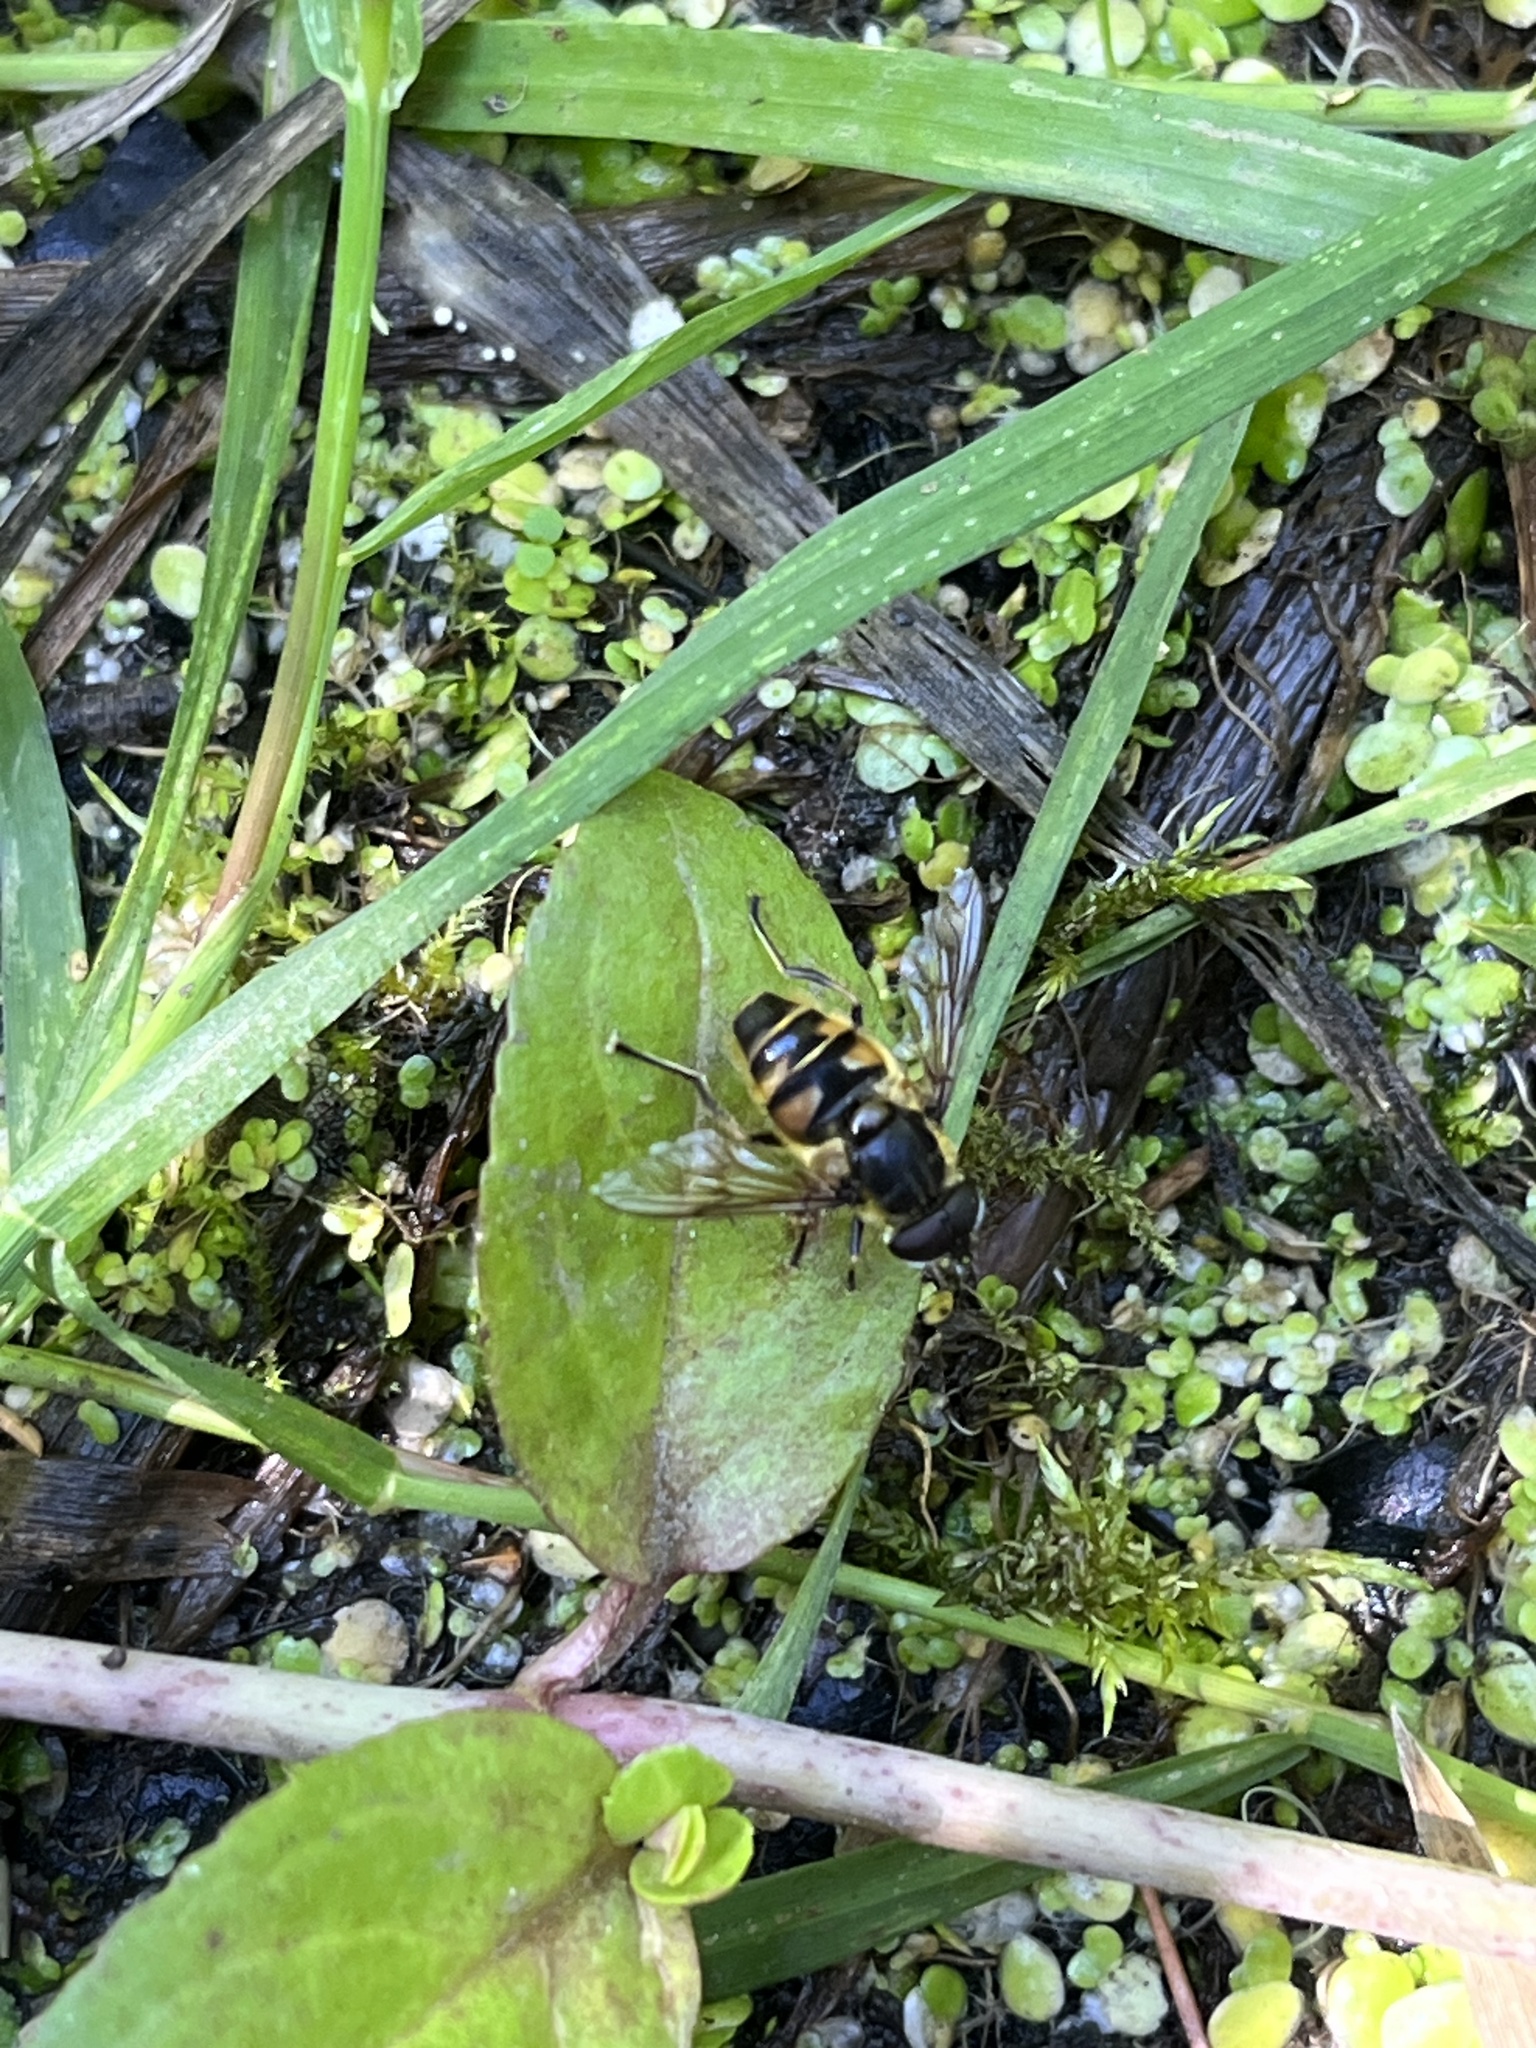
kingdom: Animalia
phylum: Arthropoda
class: Insecta
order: Diptera
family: Syrphidae
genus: Myathropa
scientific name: Myathropa florea
